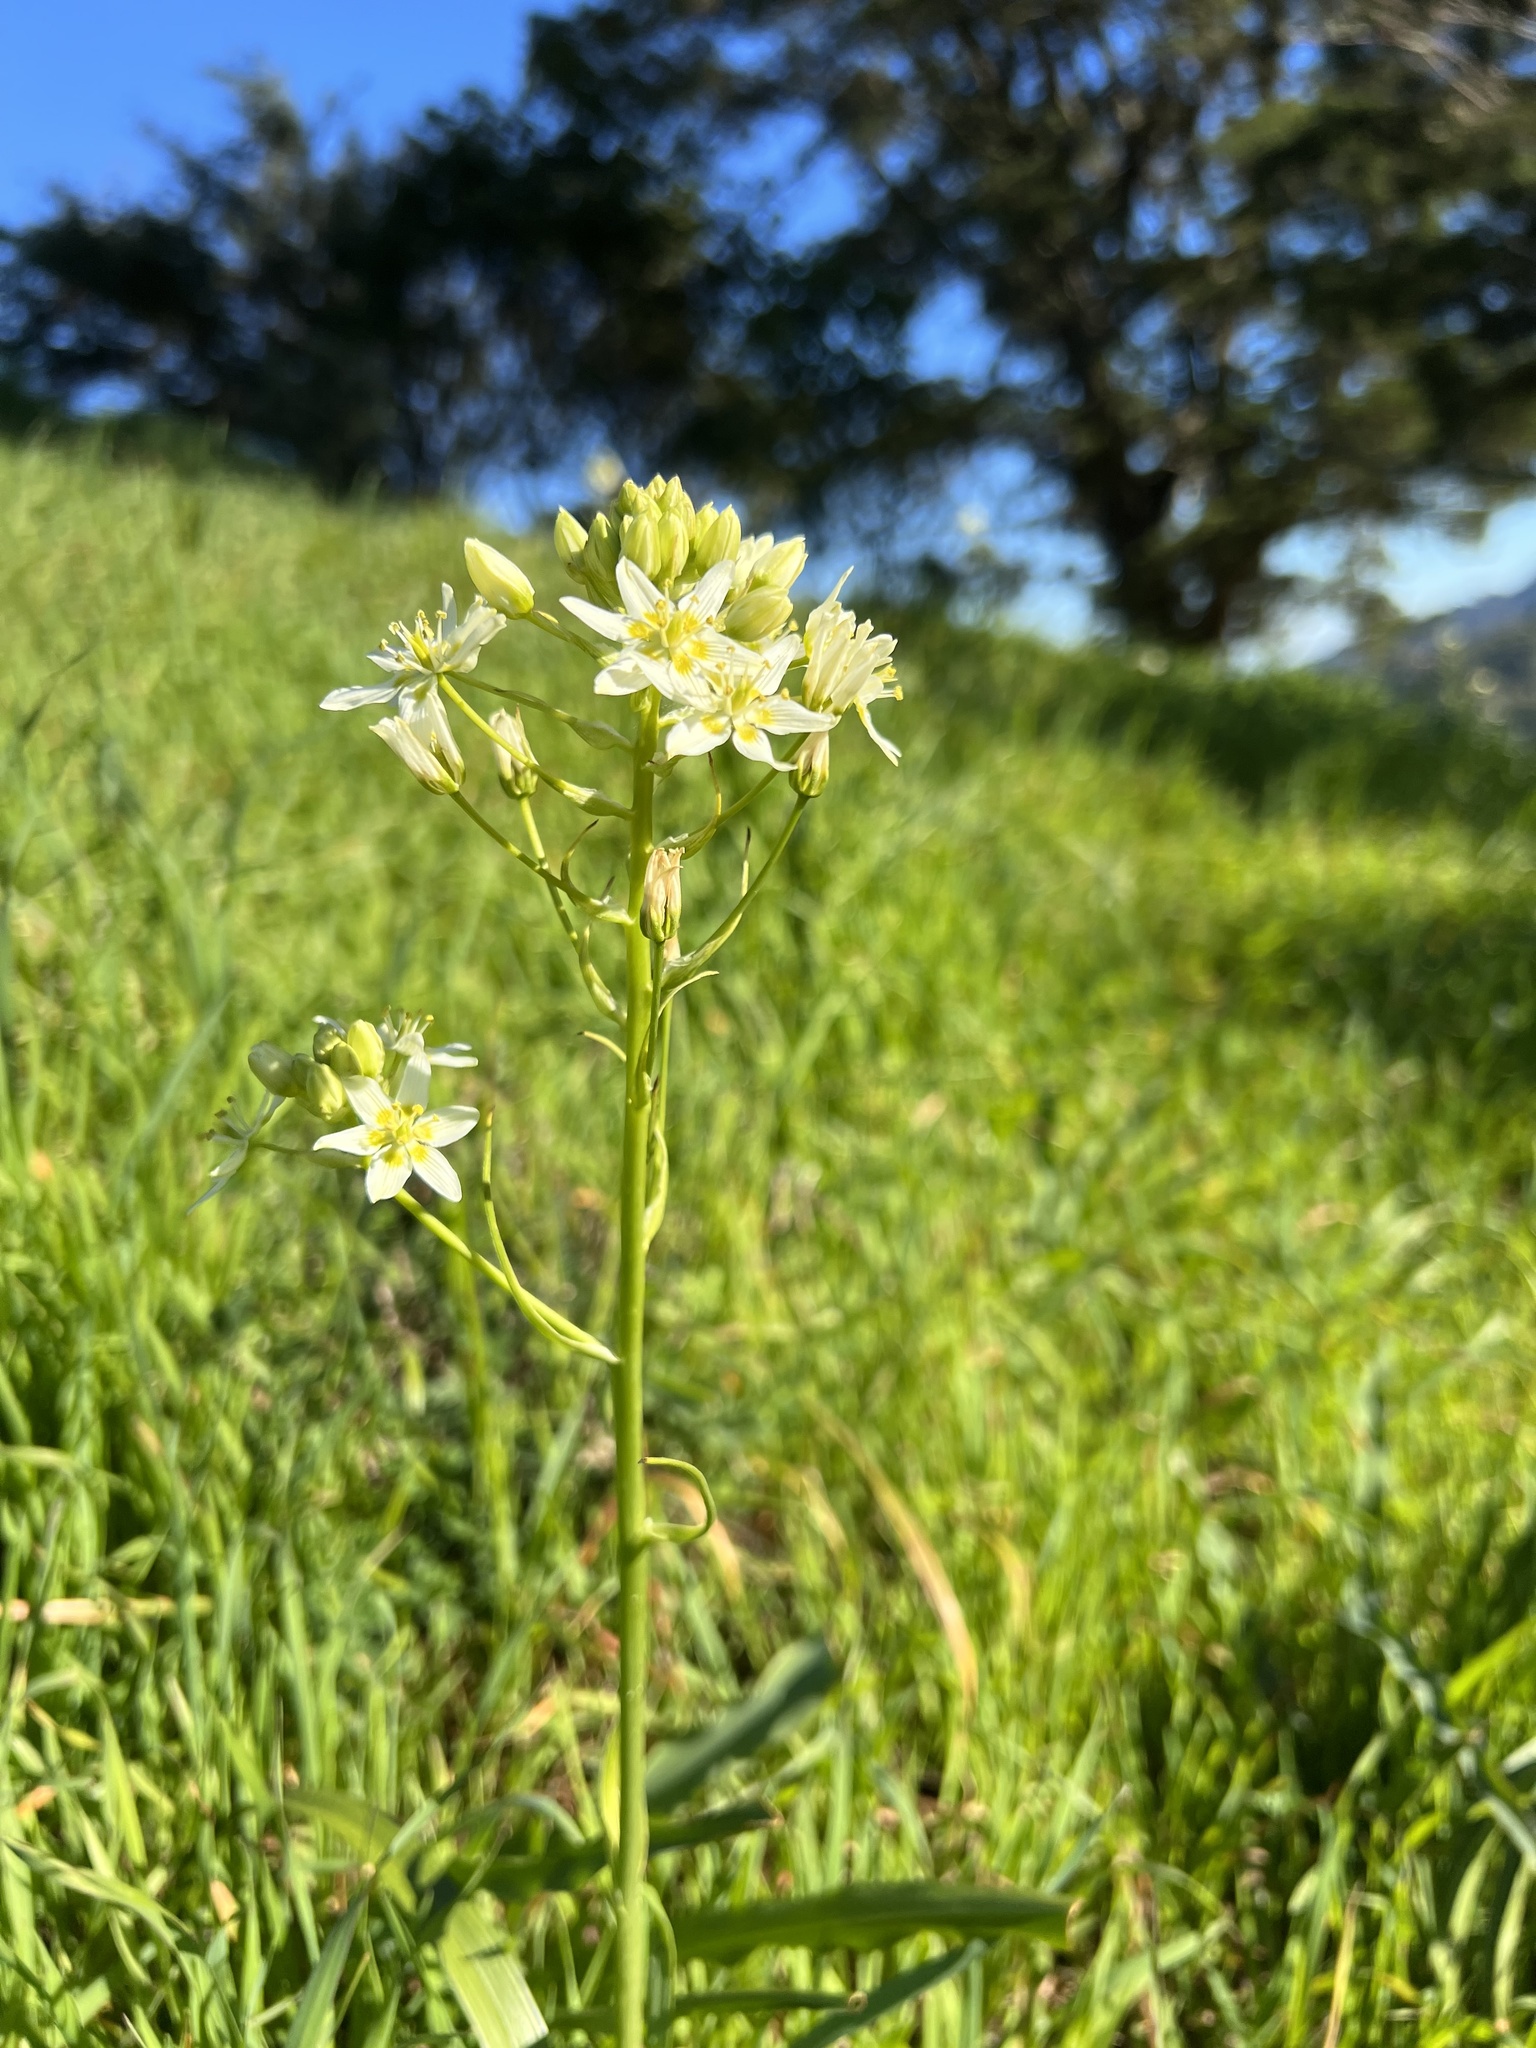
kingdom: Plantae
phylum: Tracheophyta
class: Liliopsida
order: Liliales
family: Melanthiaceae
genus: Toxicoscordion
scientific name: Toxicoscordion fremontii
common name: Fremont's death camas
